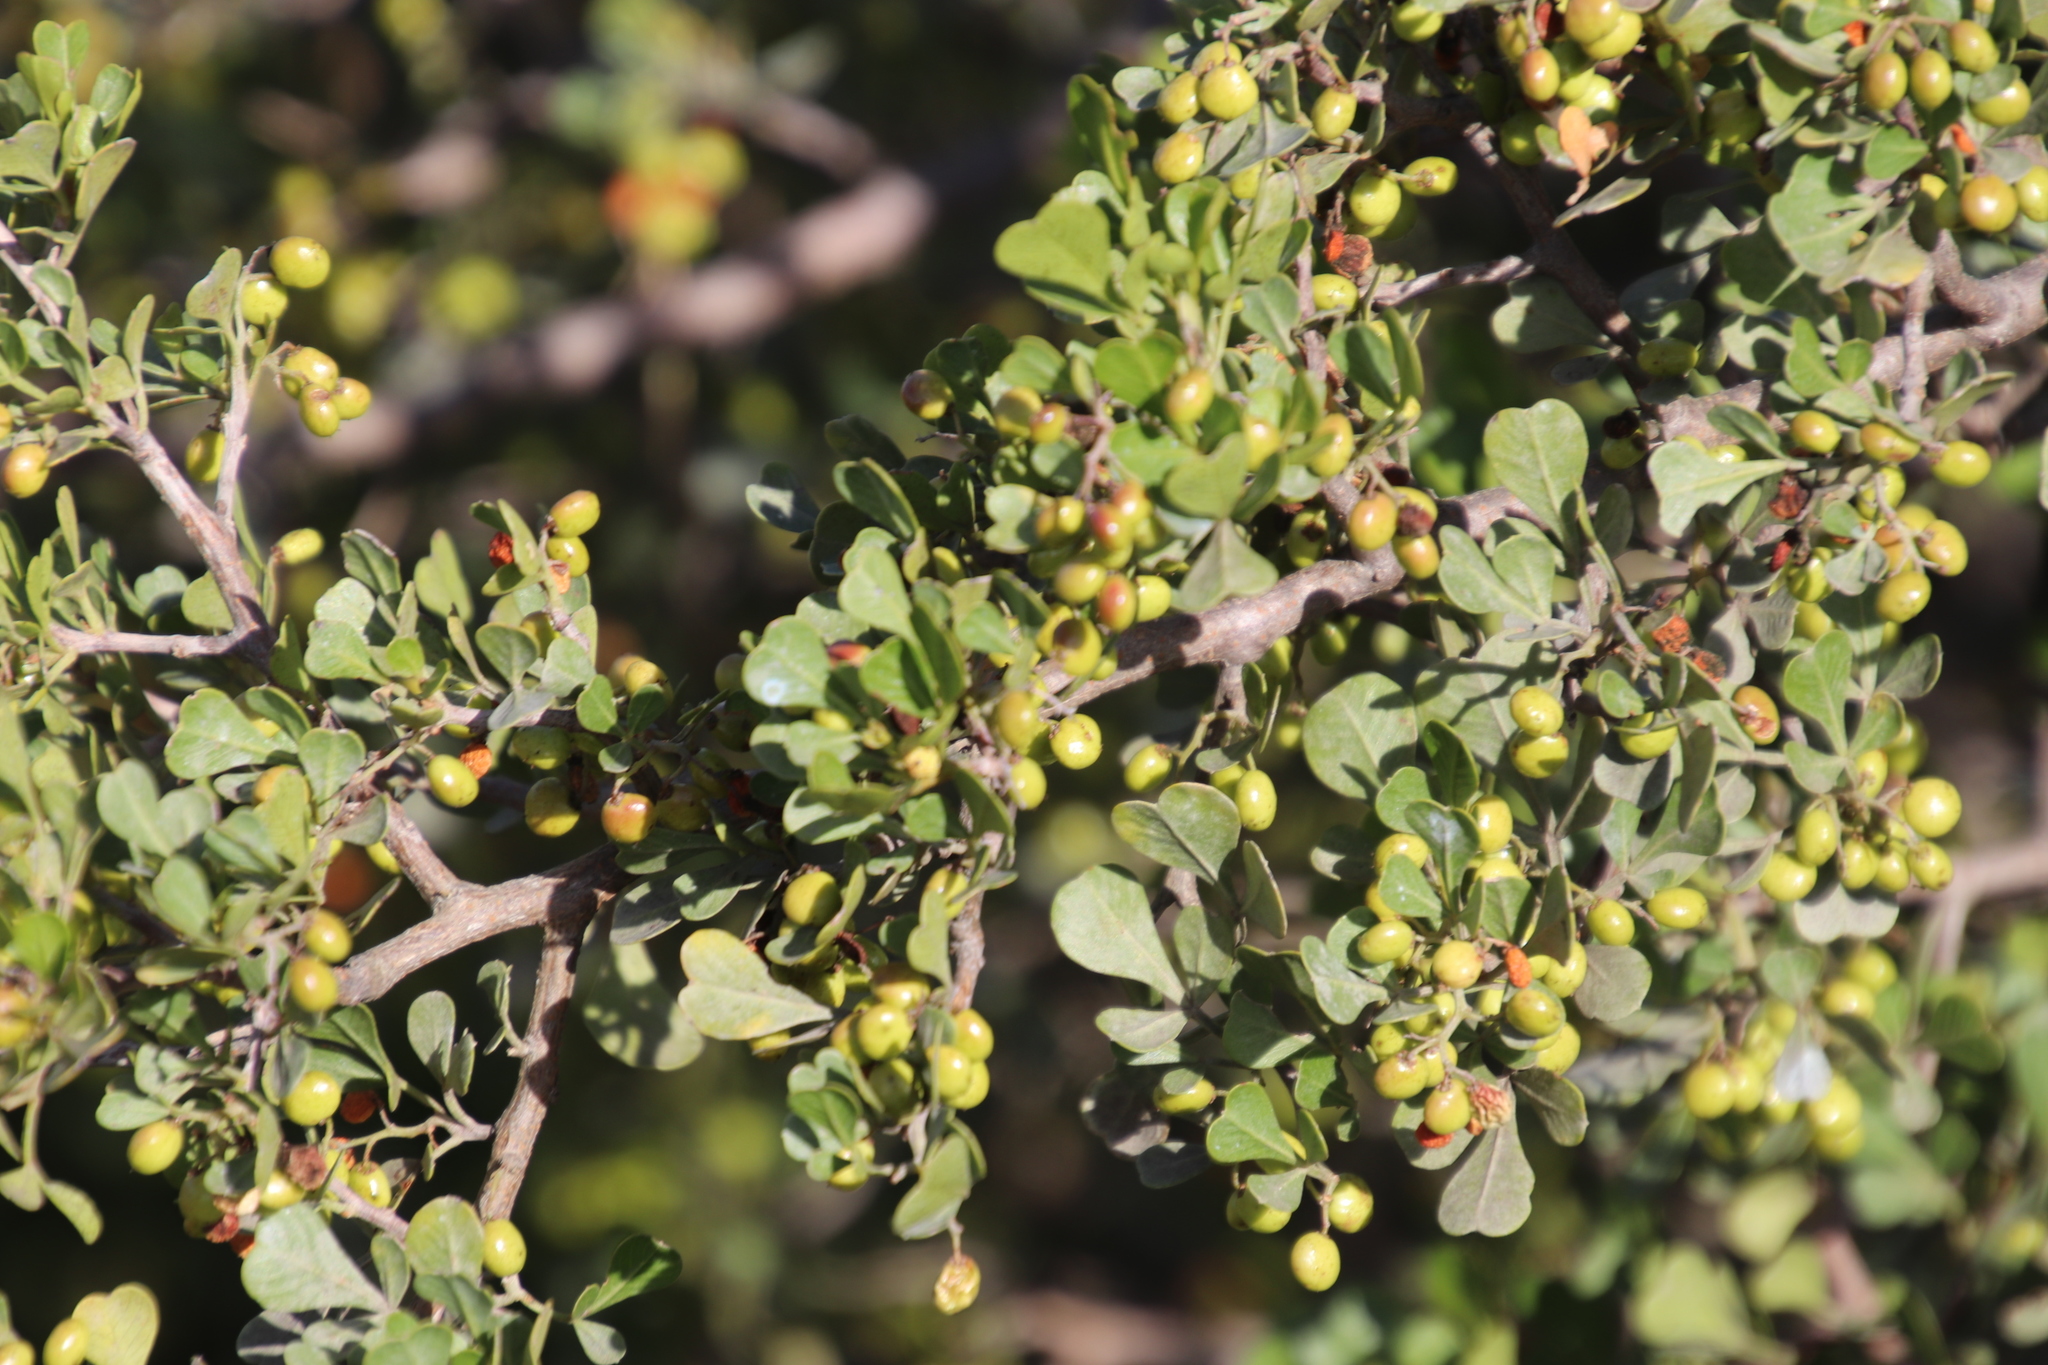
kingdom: Plantae
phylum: Tracheophyta
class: Magnoliopsida
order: Sapindales
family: Anacardiaceae
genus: Searsia
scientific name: Searsia glauca
